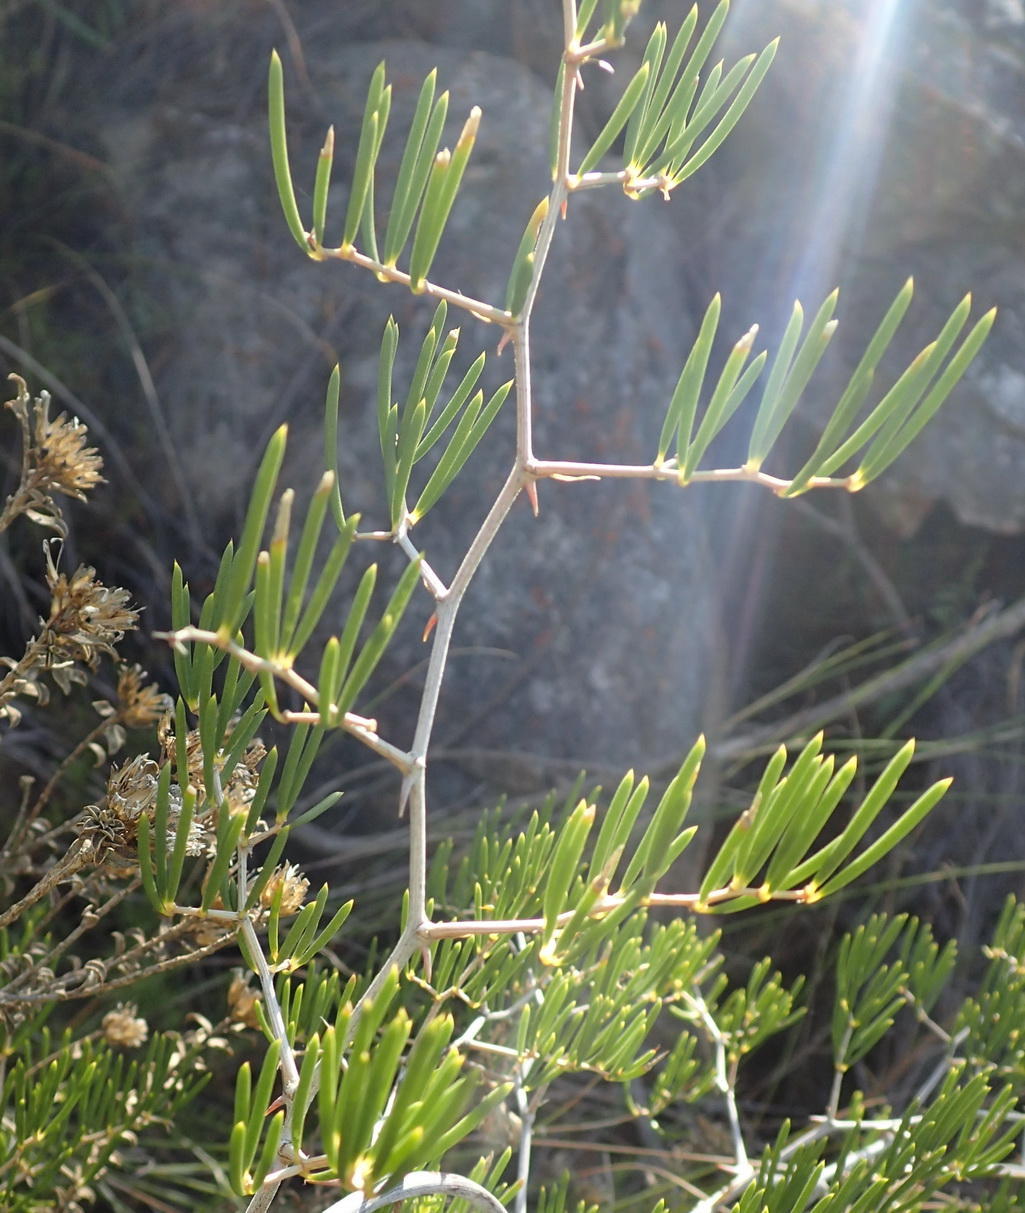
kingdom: Plantae
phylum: Tracheophyta
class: Liliopsida
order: Asparagales
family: Asparagaceae
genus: Asparagus
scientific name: Asparagus lignosus
